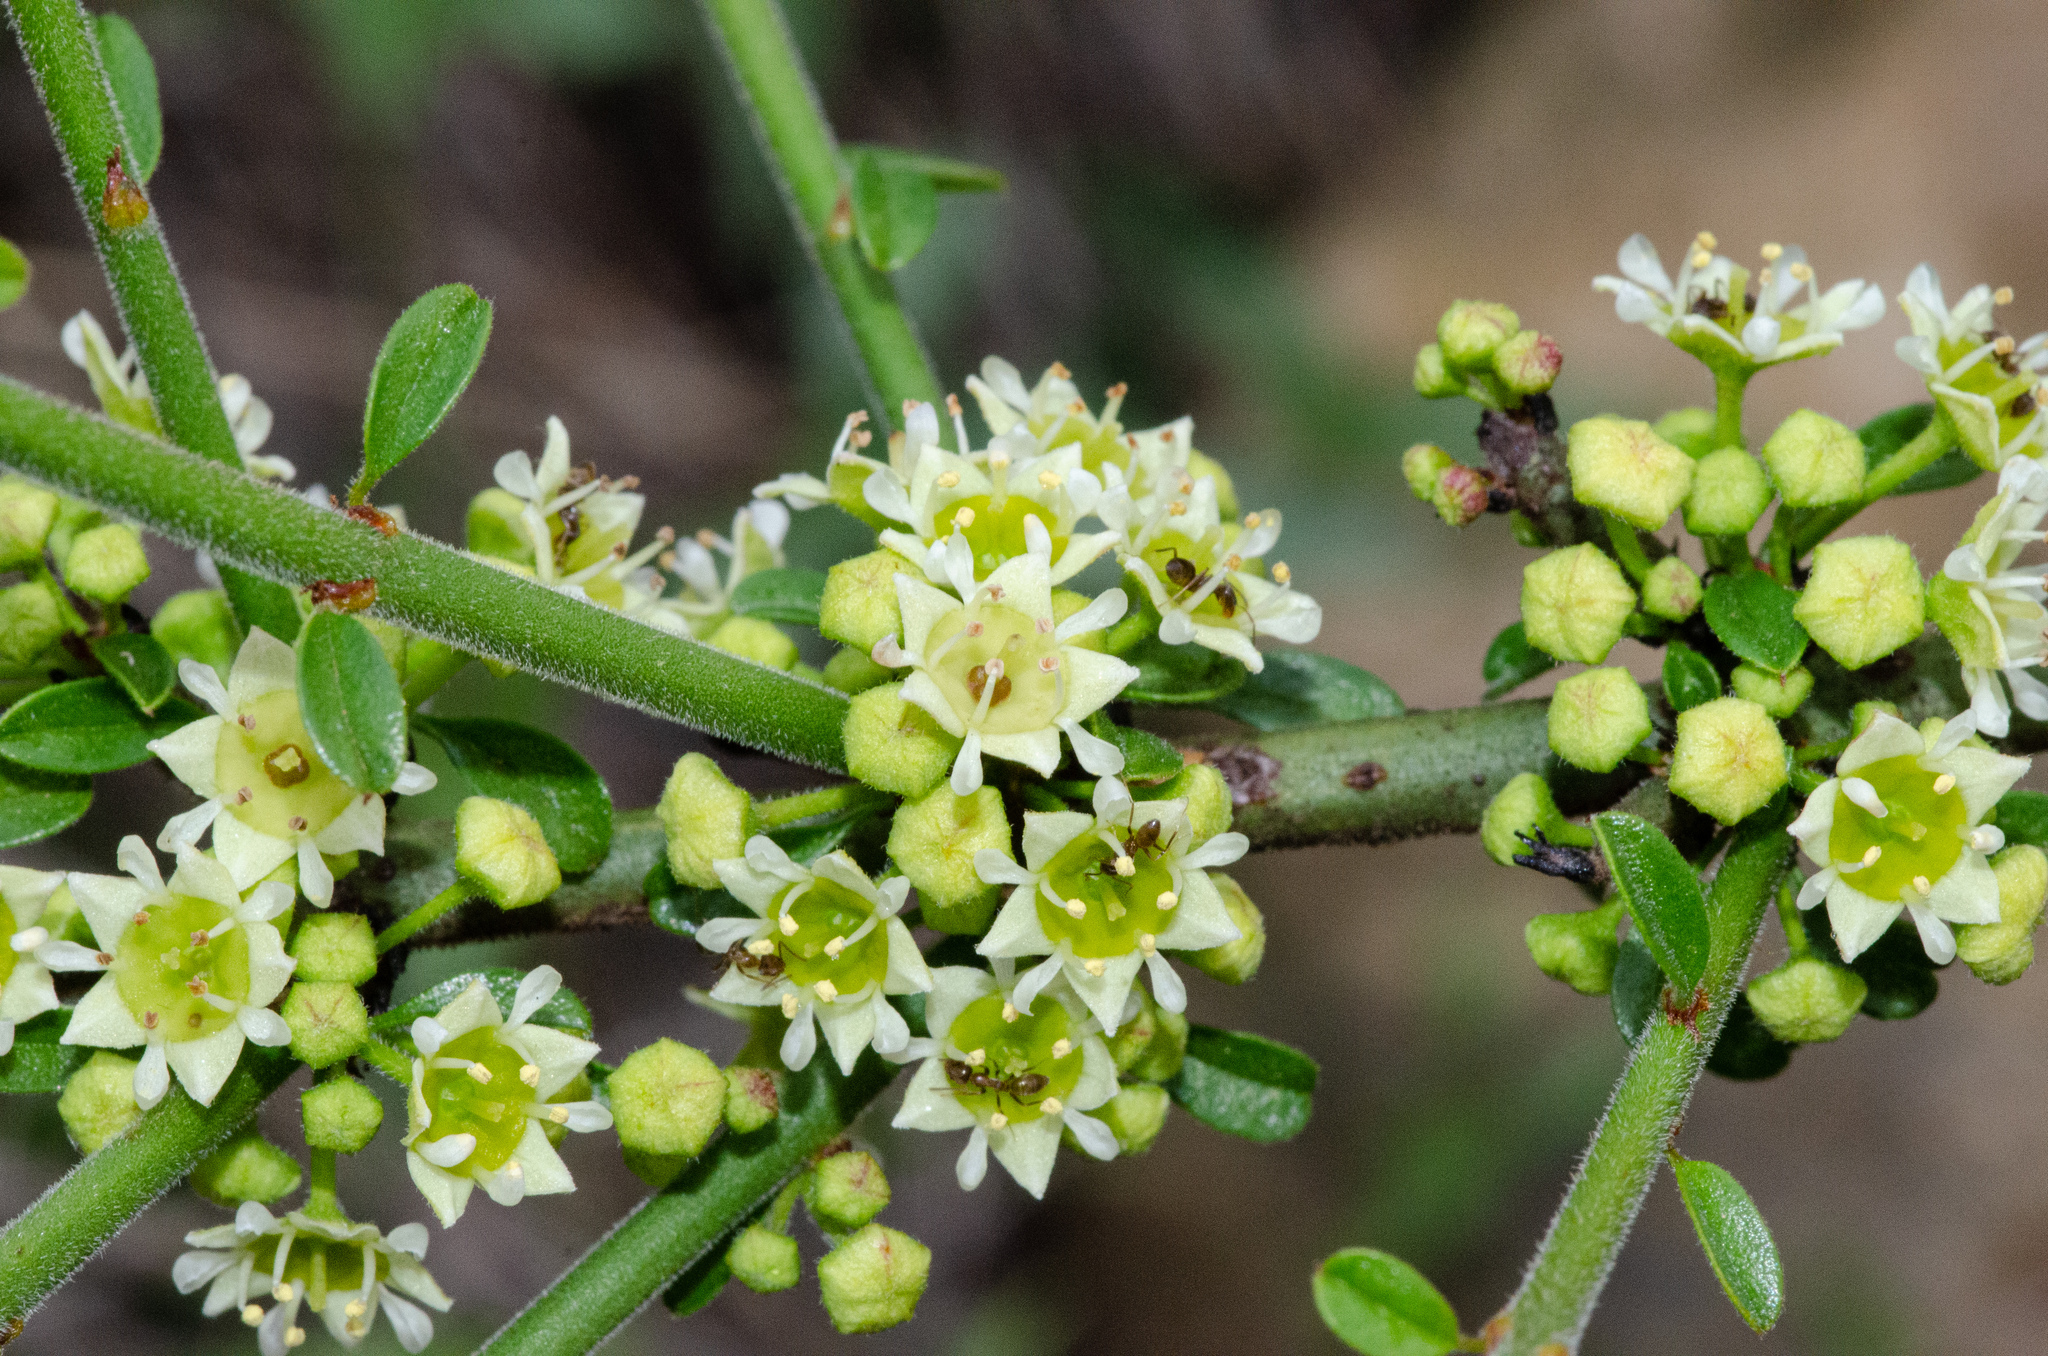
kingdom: Plantae
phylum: Tracheophyta
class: Magnoliopsida
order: Rosales
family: Rhamnaceae
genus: Adolphia
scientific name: Adolphia californica
